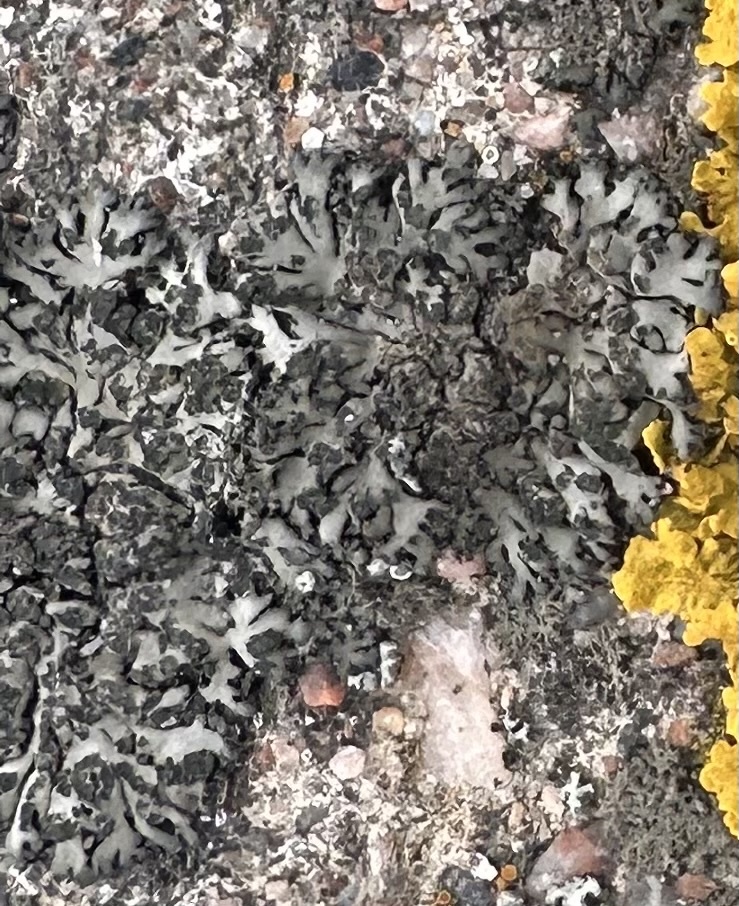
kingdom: Fungi
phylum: Ascomycota
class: Lecanoromycetes
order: Caliciales
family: Physciaceae
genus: Phaeophyscia
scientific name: Phaeophyscia orbicularis
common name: Mealy shadow lichen
